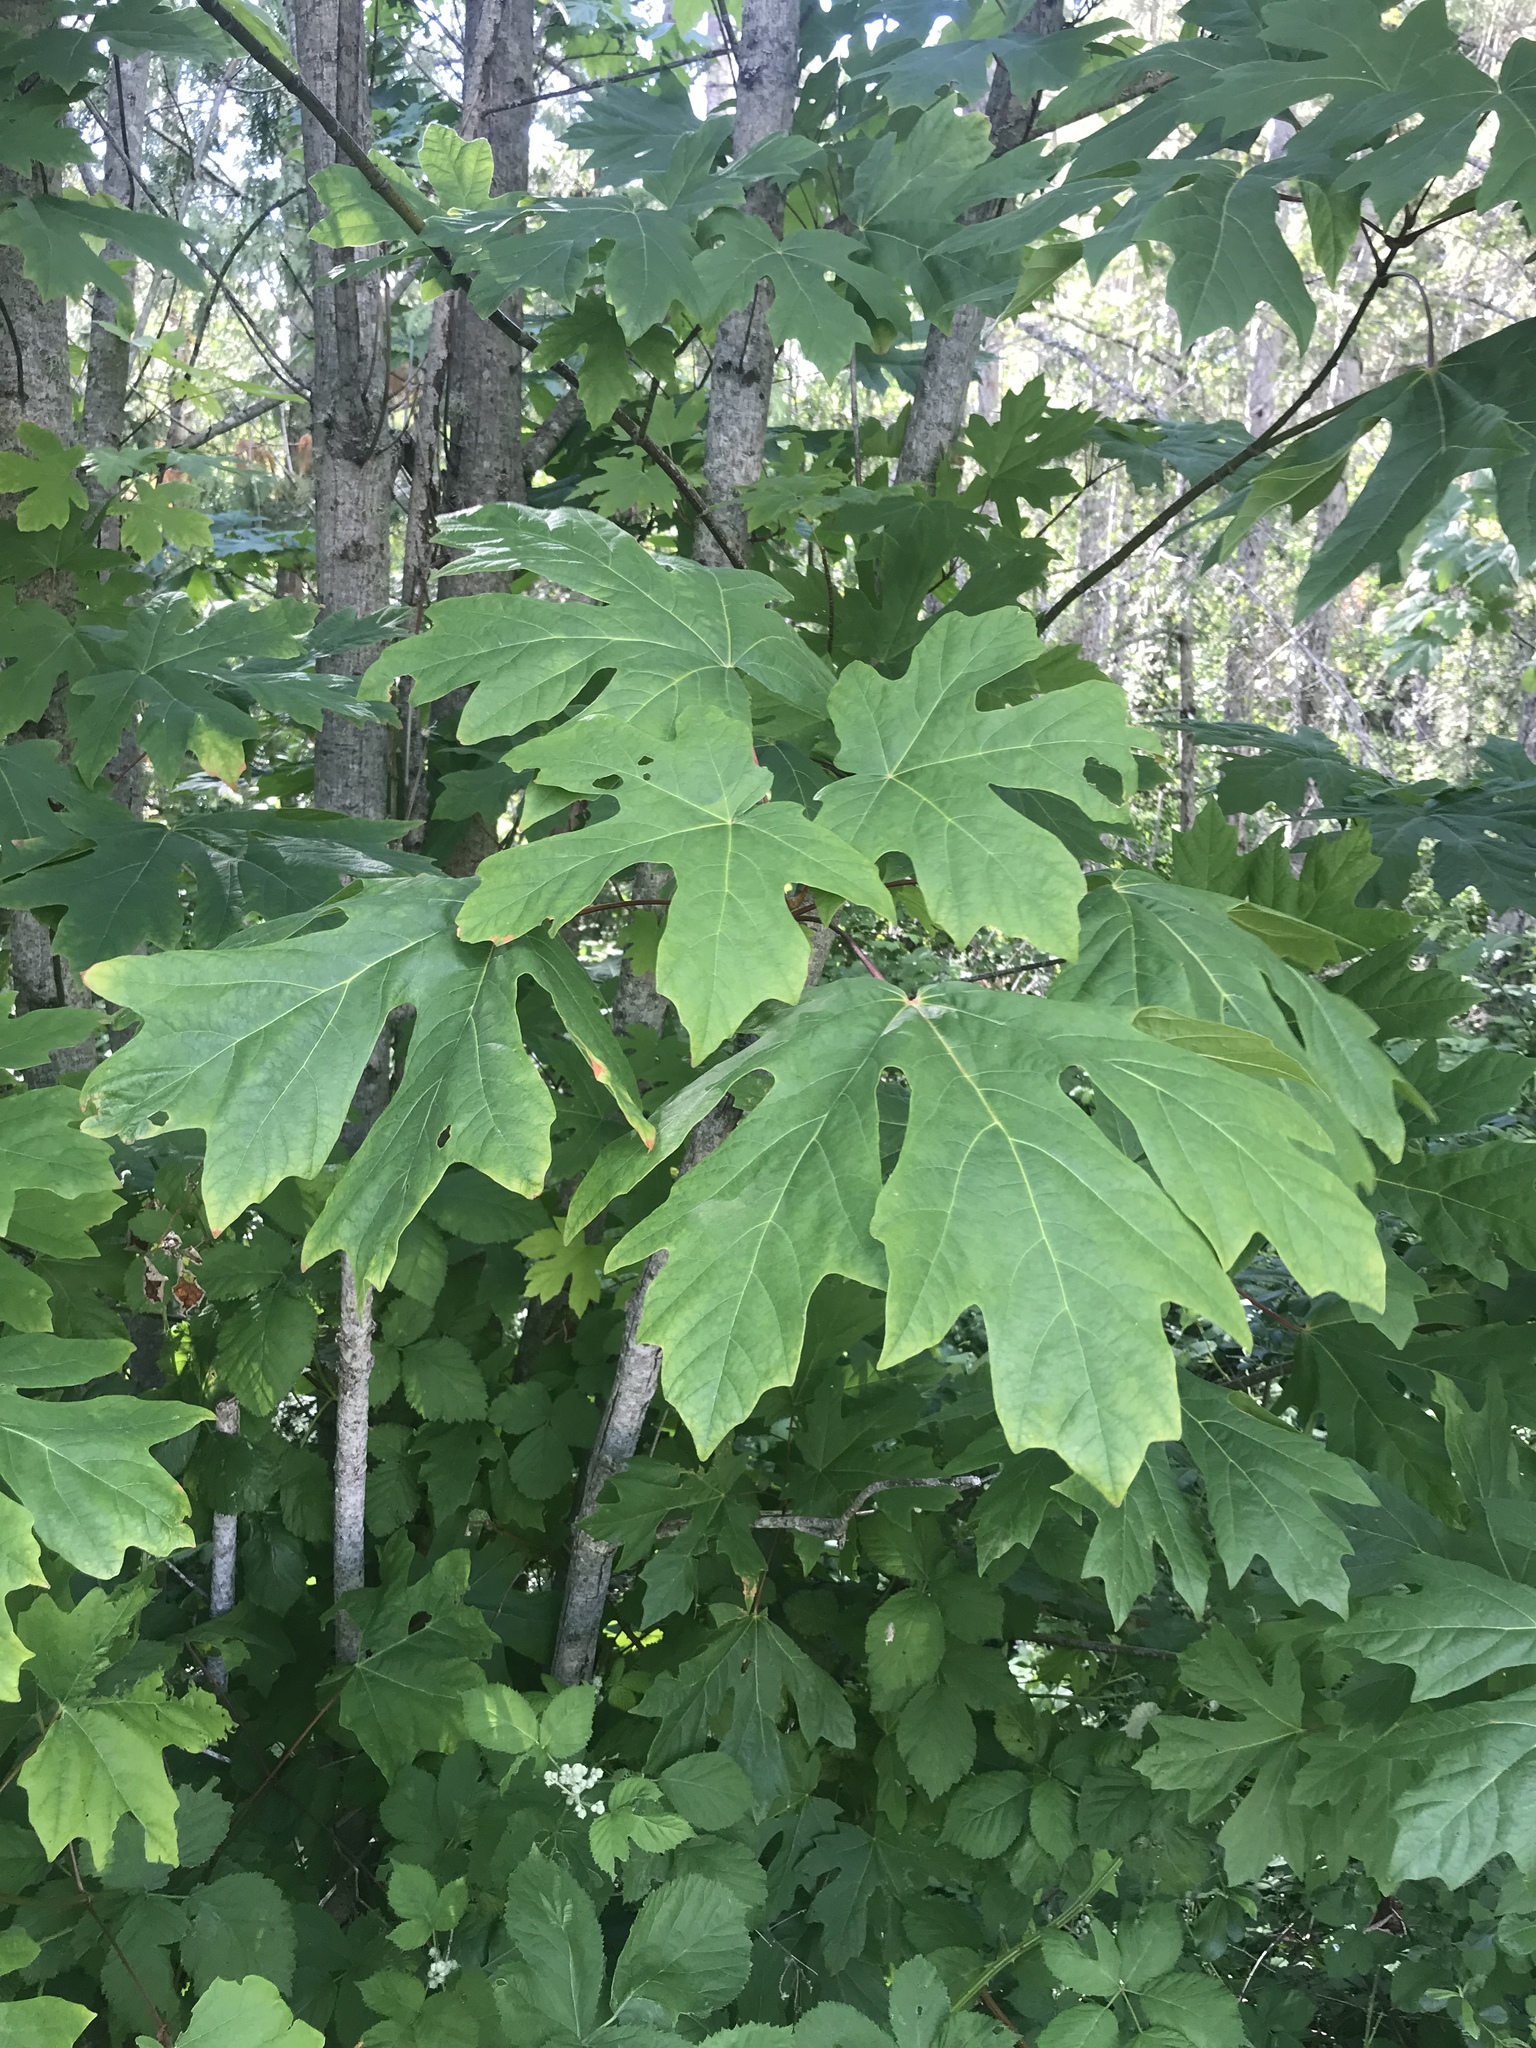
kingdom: Plantae
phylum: Tracheophyta
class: Magnoliopsida
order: Sapindales
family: Sapindaceae
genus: Acer
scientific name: Acer macrophyllum
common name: Oregon maple
